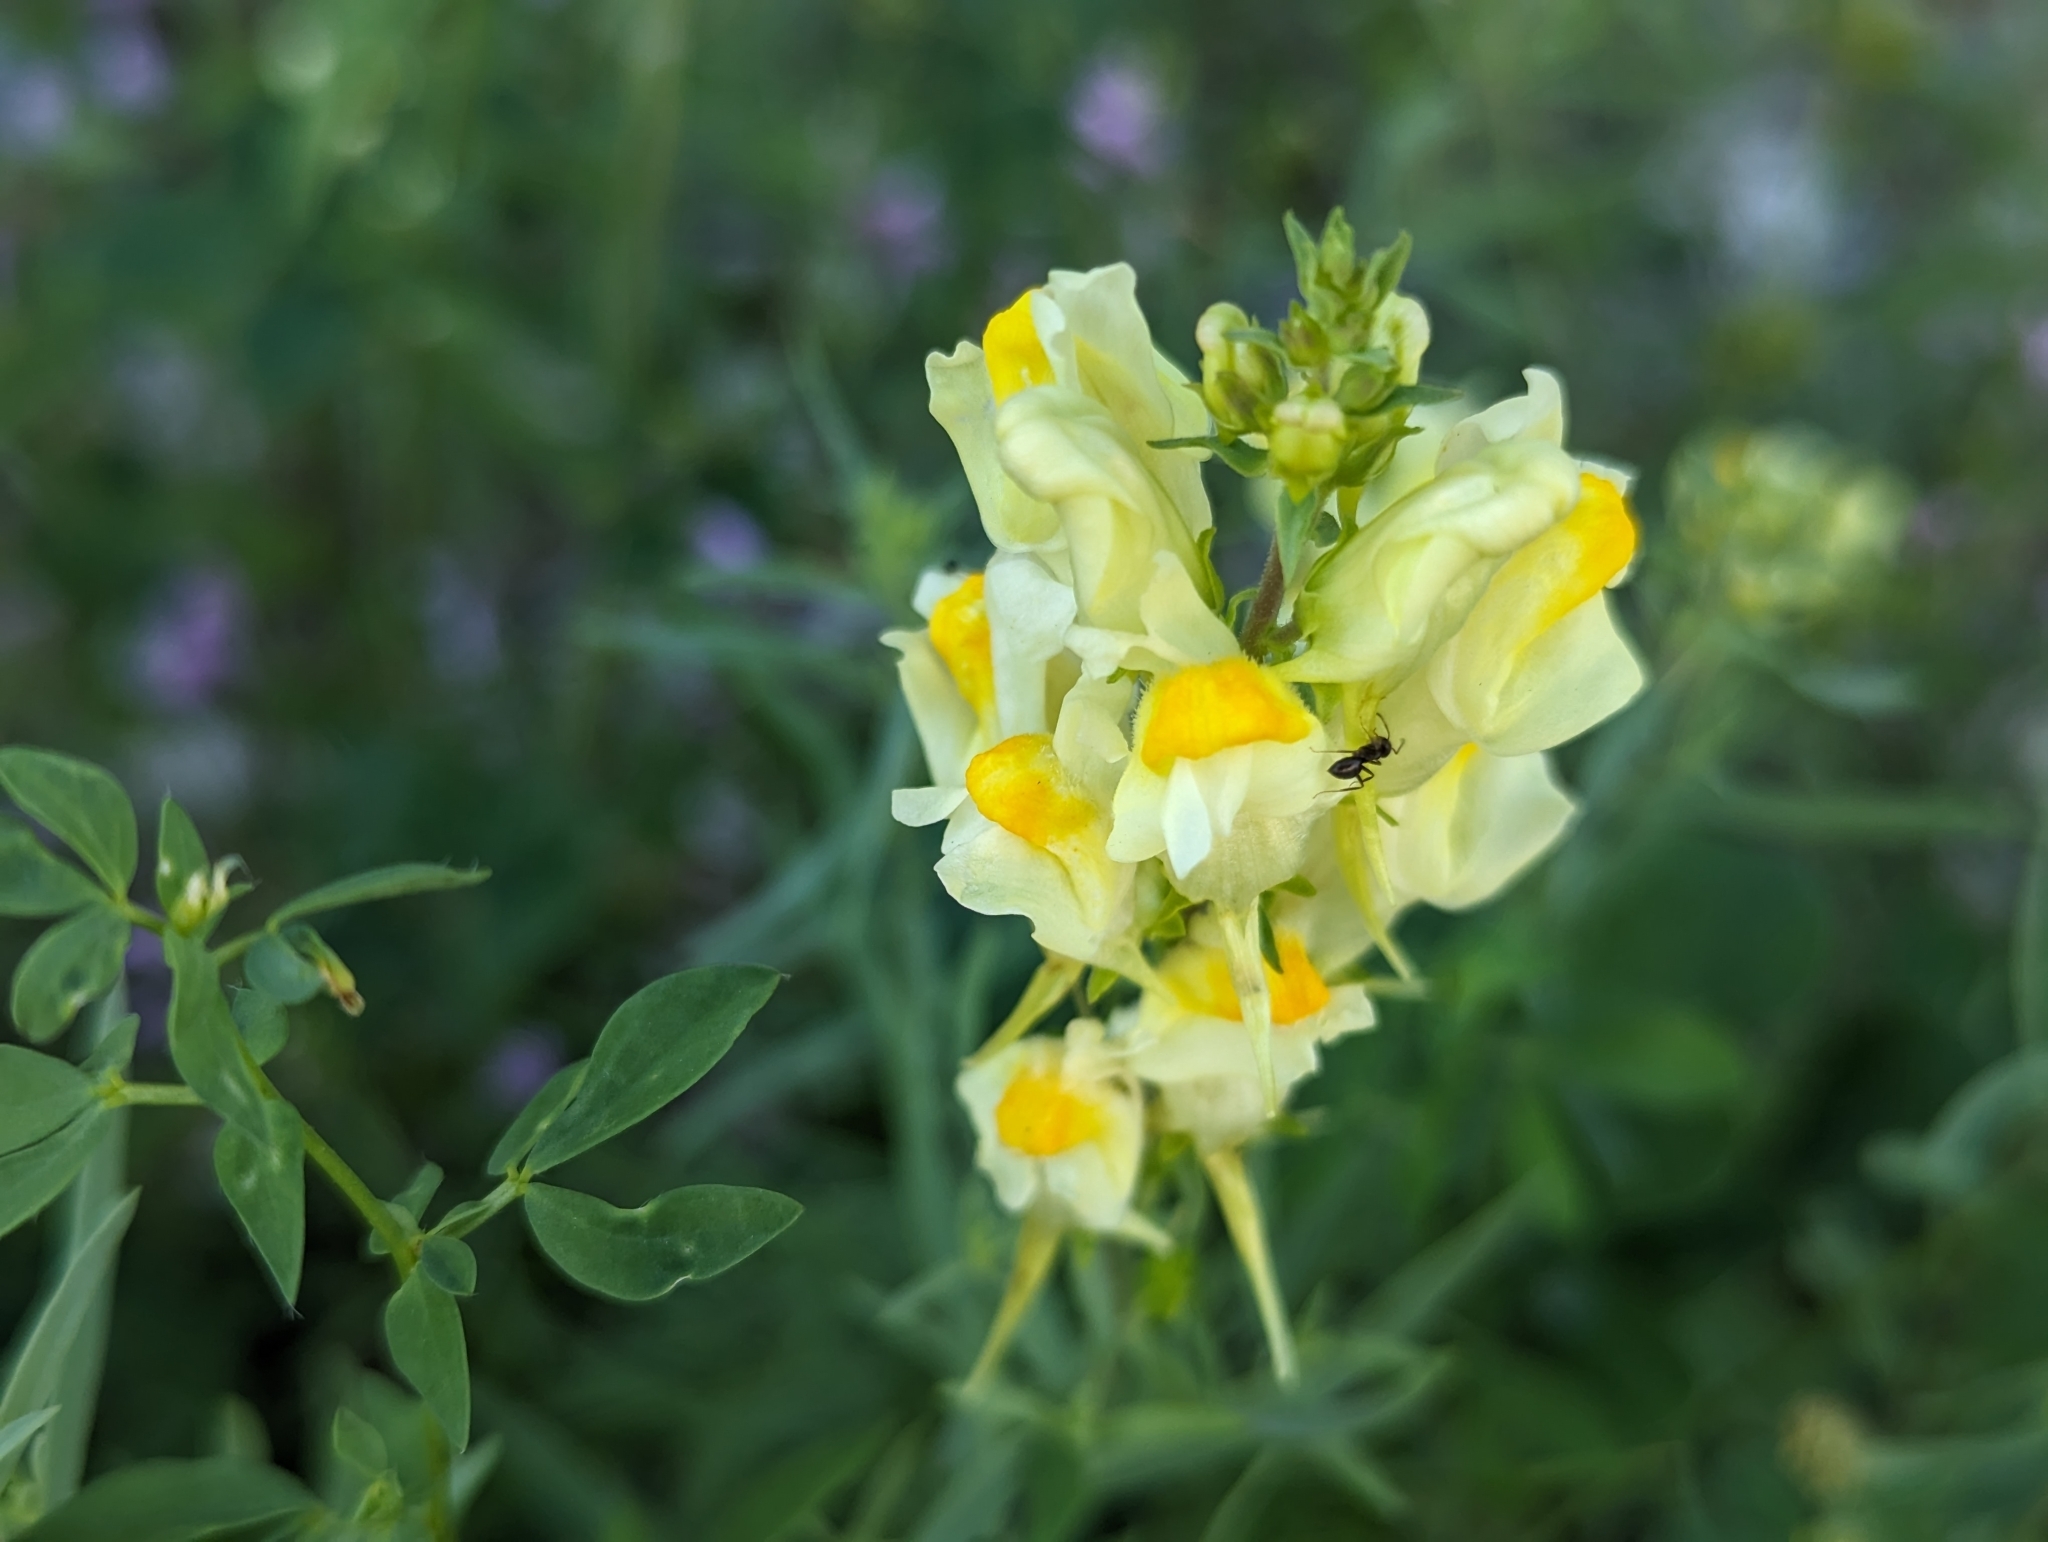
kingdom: Plantae
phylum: Tracheophyta
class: Magnoliopsida
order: Lamiales
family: Plantaginaceae
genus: Linaria
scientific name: Linaria vulgaris
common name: Butter and eggs
